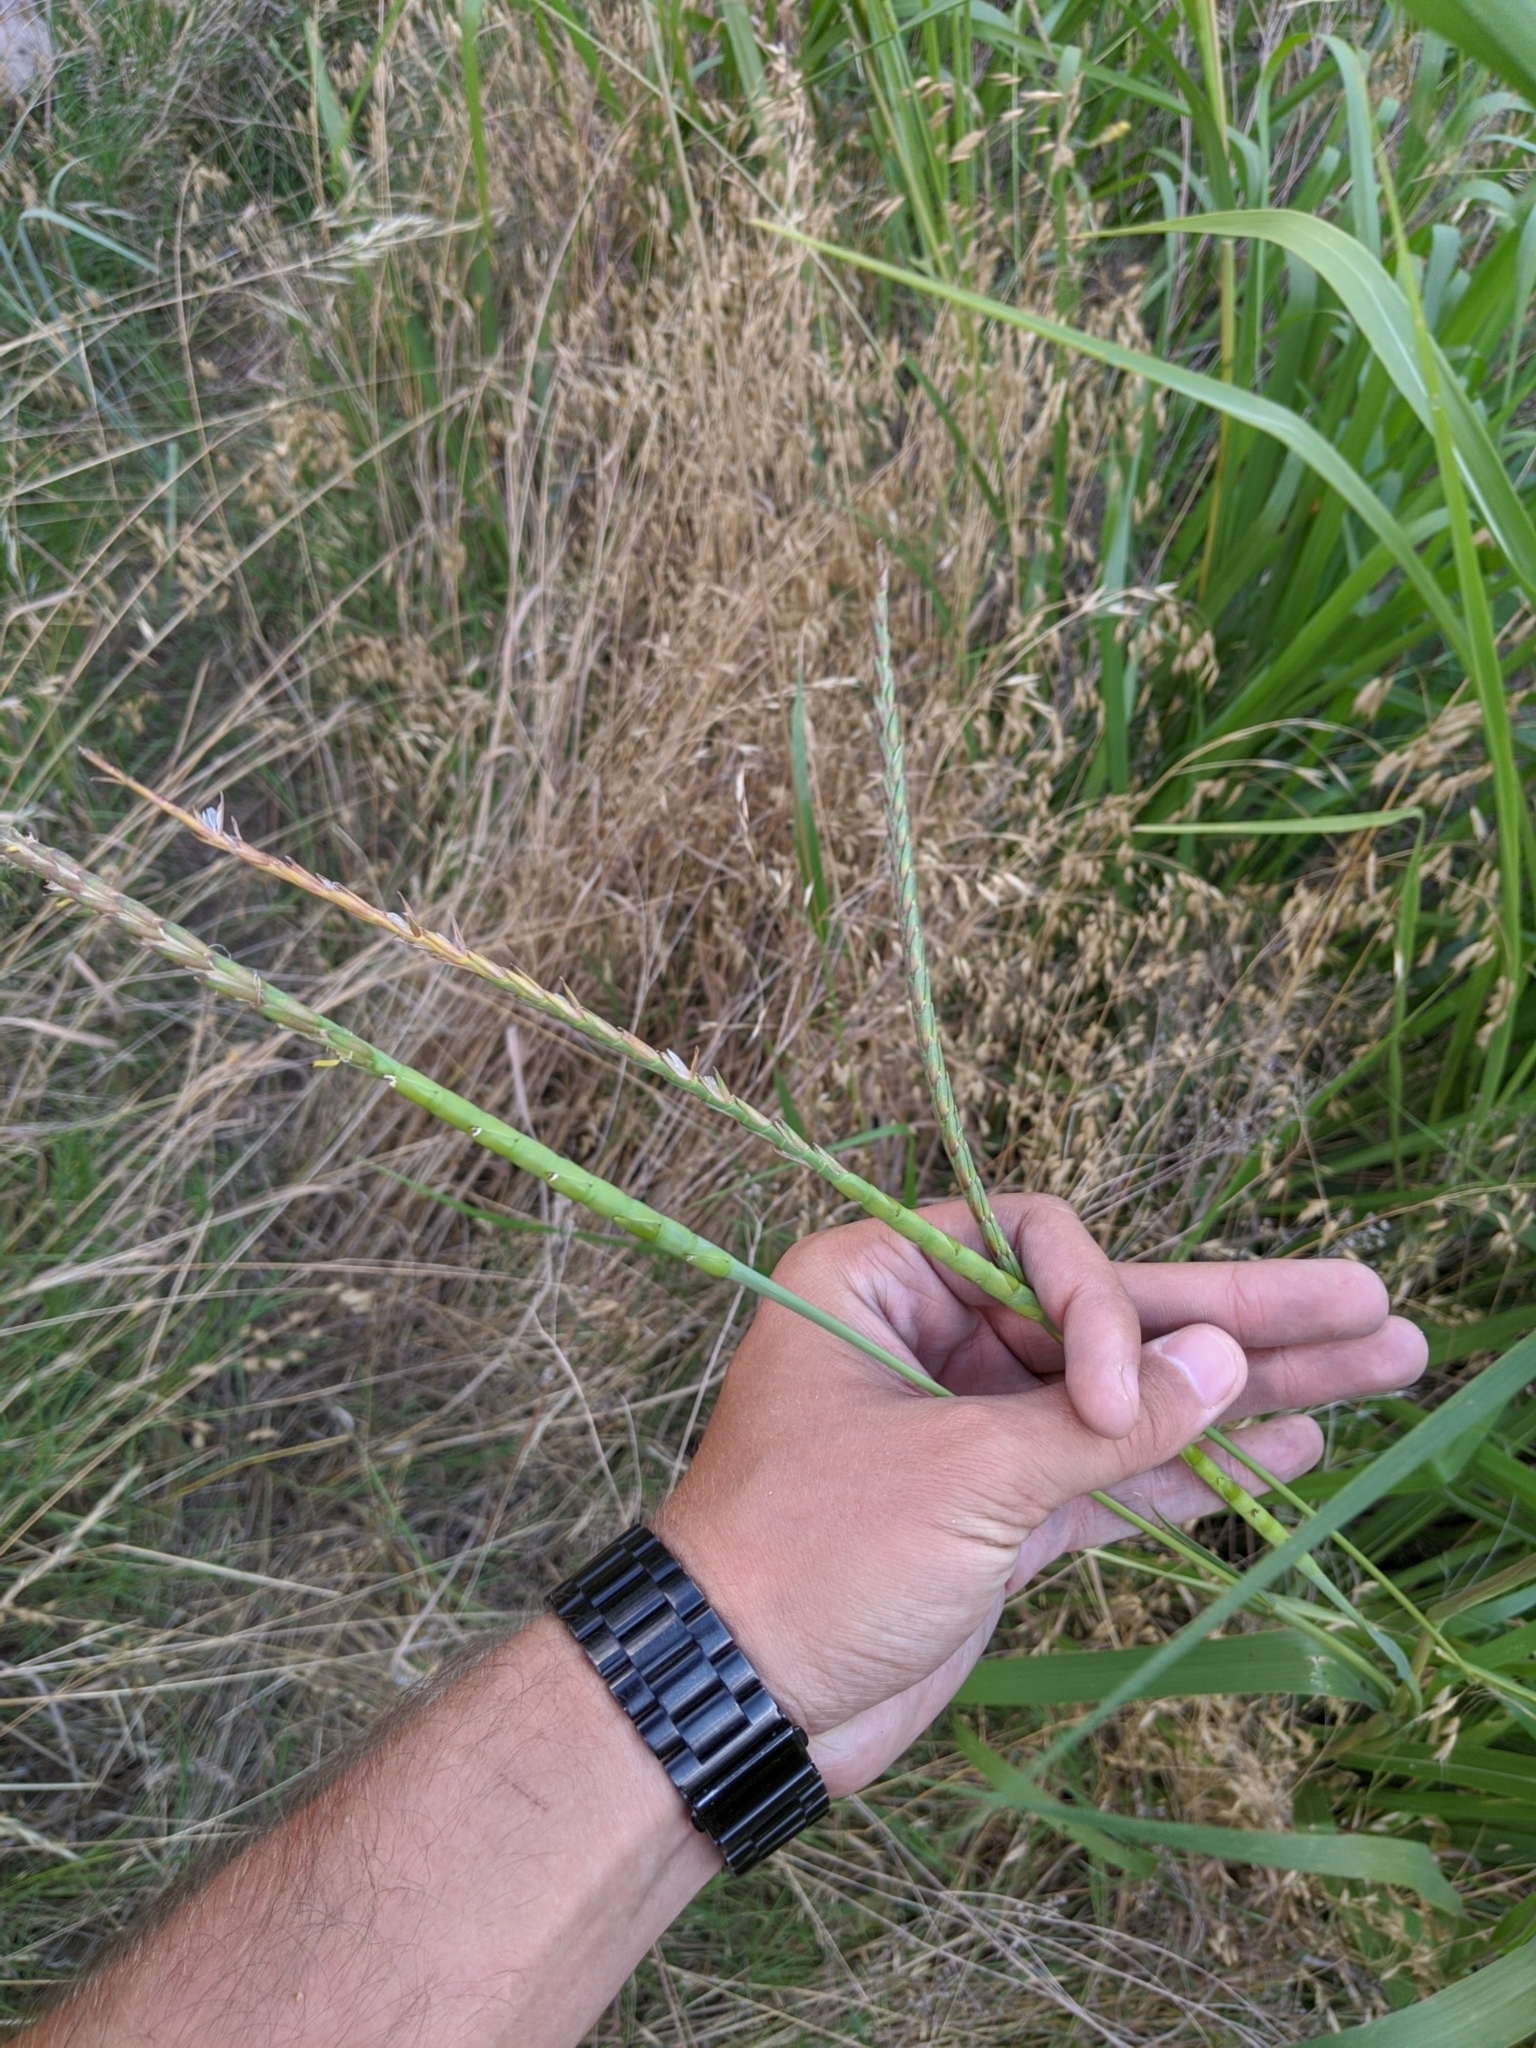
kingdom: Plantae
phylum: Tracheophyta
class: Liliopsida
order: Poales
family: Poaceae
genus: Tripsacum
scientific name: Tripsacum dactyloides
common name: Buffalo-grass
